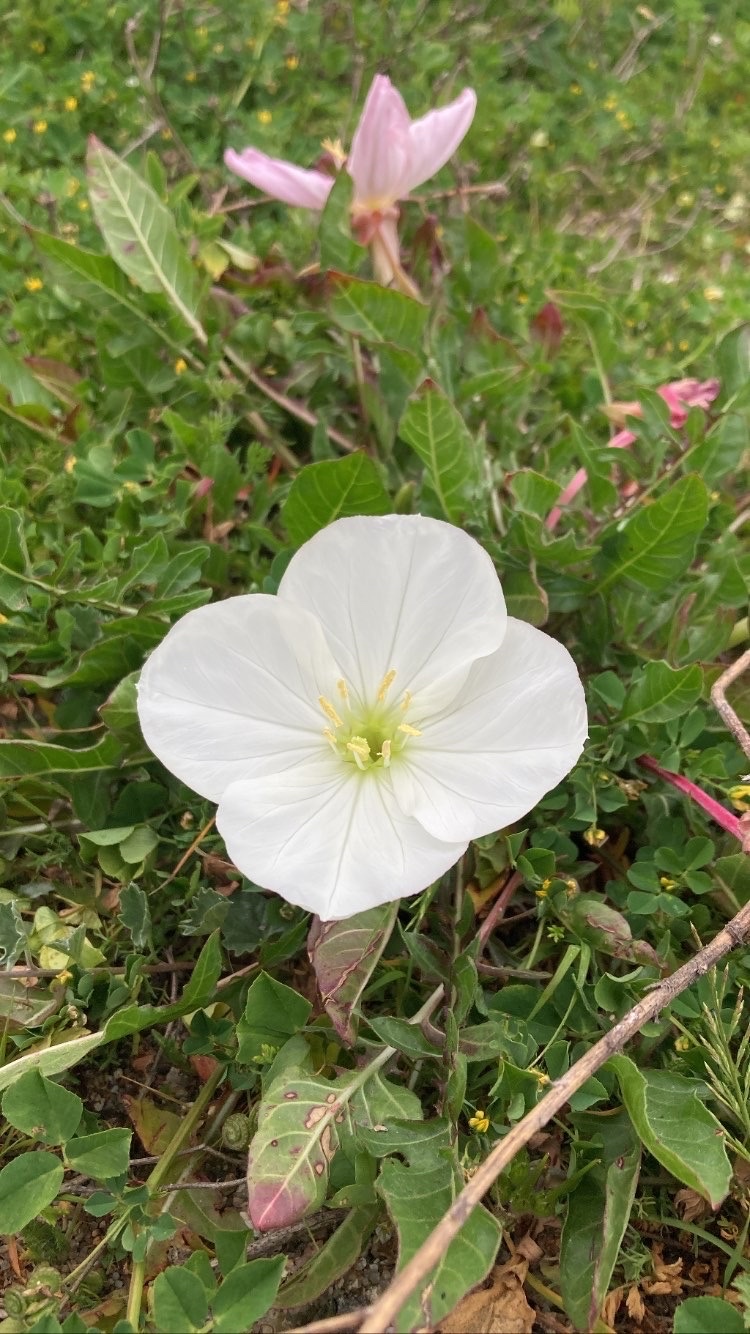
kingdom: Plantae
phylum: Tracheophyta
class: Magnoliopsida
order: Myrtales
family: Onagraceae
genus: Oenothera
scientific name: Oenothera acaulis
